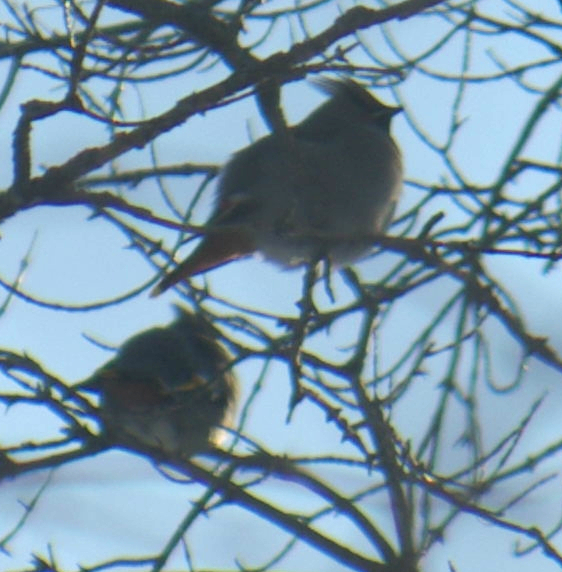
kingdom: Animalia
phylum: Chordata
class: Aves
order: Passeriformes
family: Bombycillidae
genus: Bombycilla
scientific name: Bombycilla garrulus
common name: Bohemian waxwing
